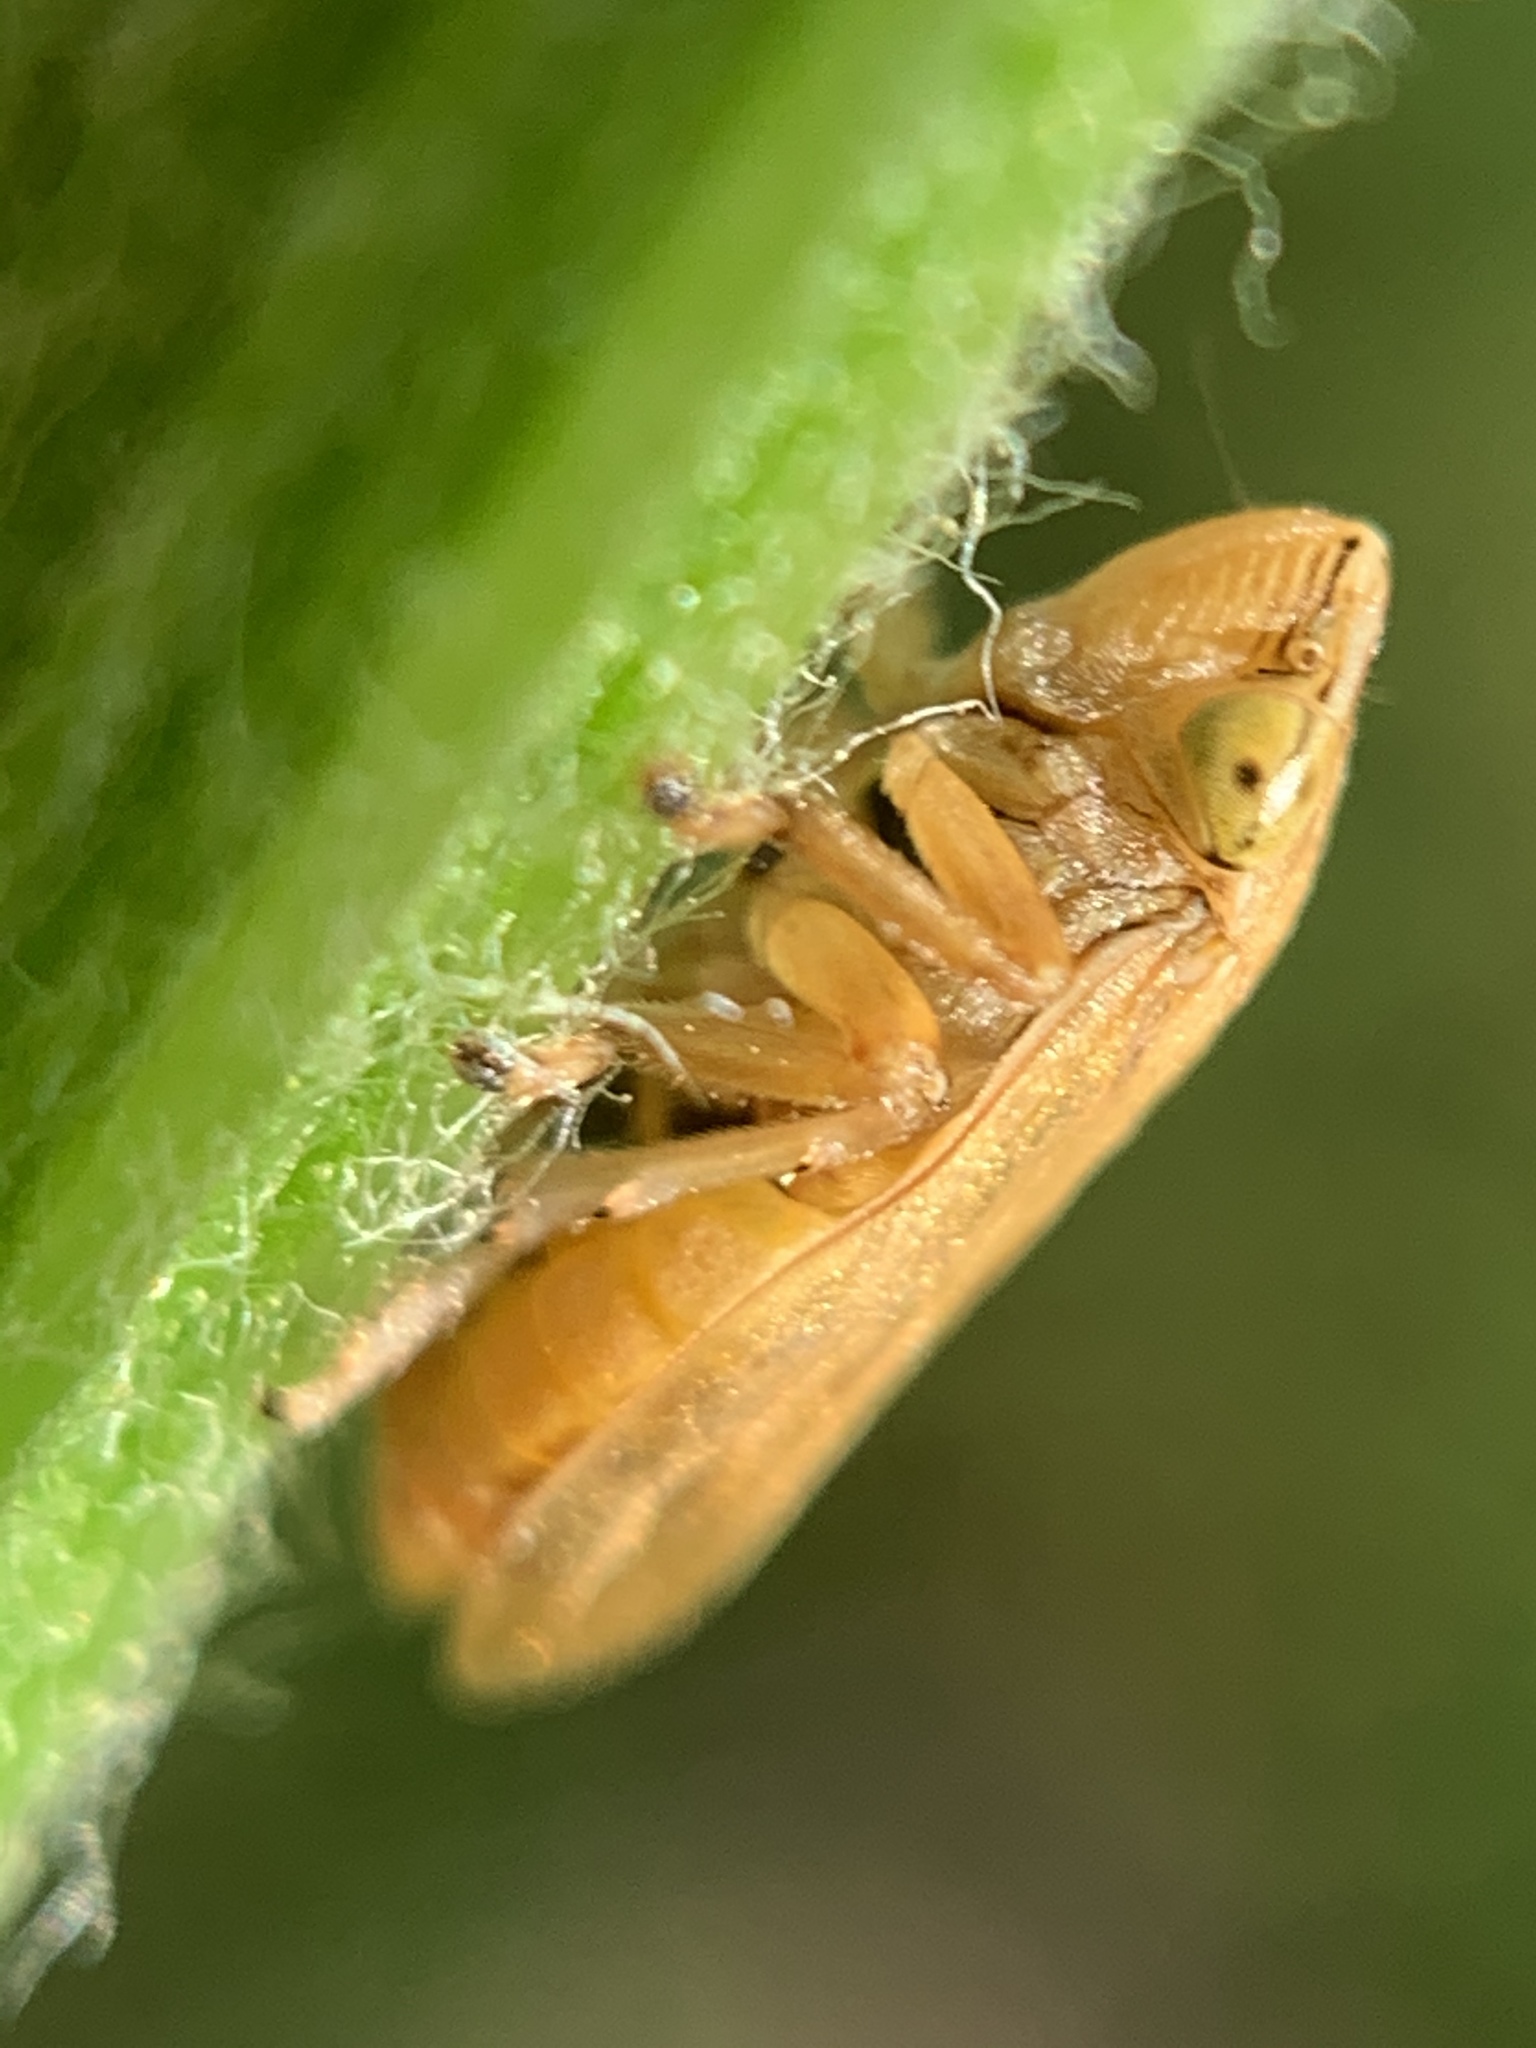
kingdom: Animalia
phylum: Arthropoda
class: Insecta
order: Hemiptera
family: Aphrophoridae
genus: Philaenus
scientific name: Philaenus spumarius
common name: Meadow spittlebug
